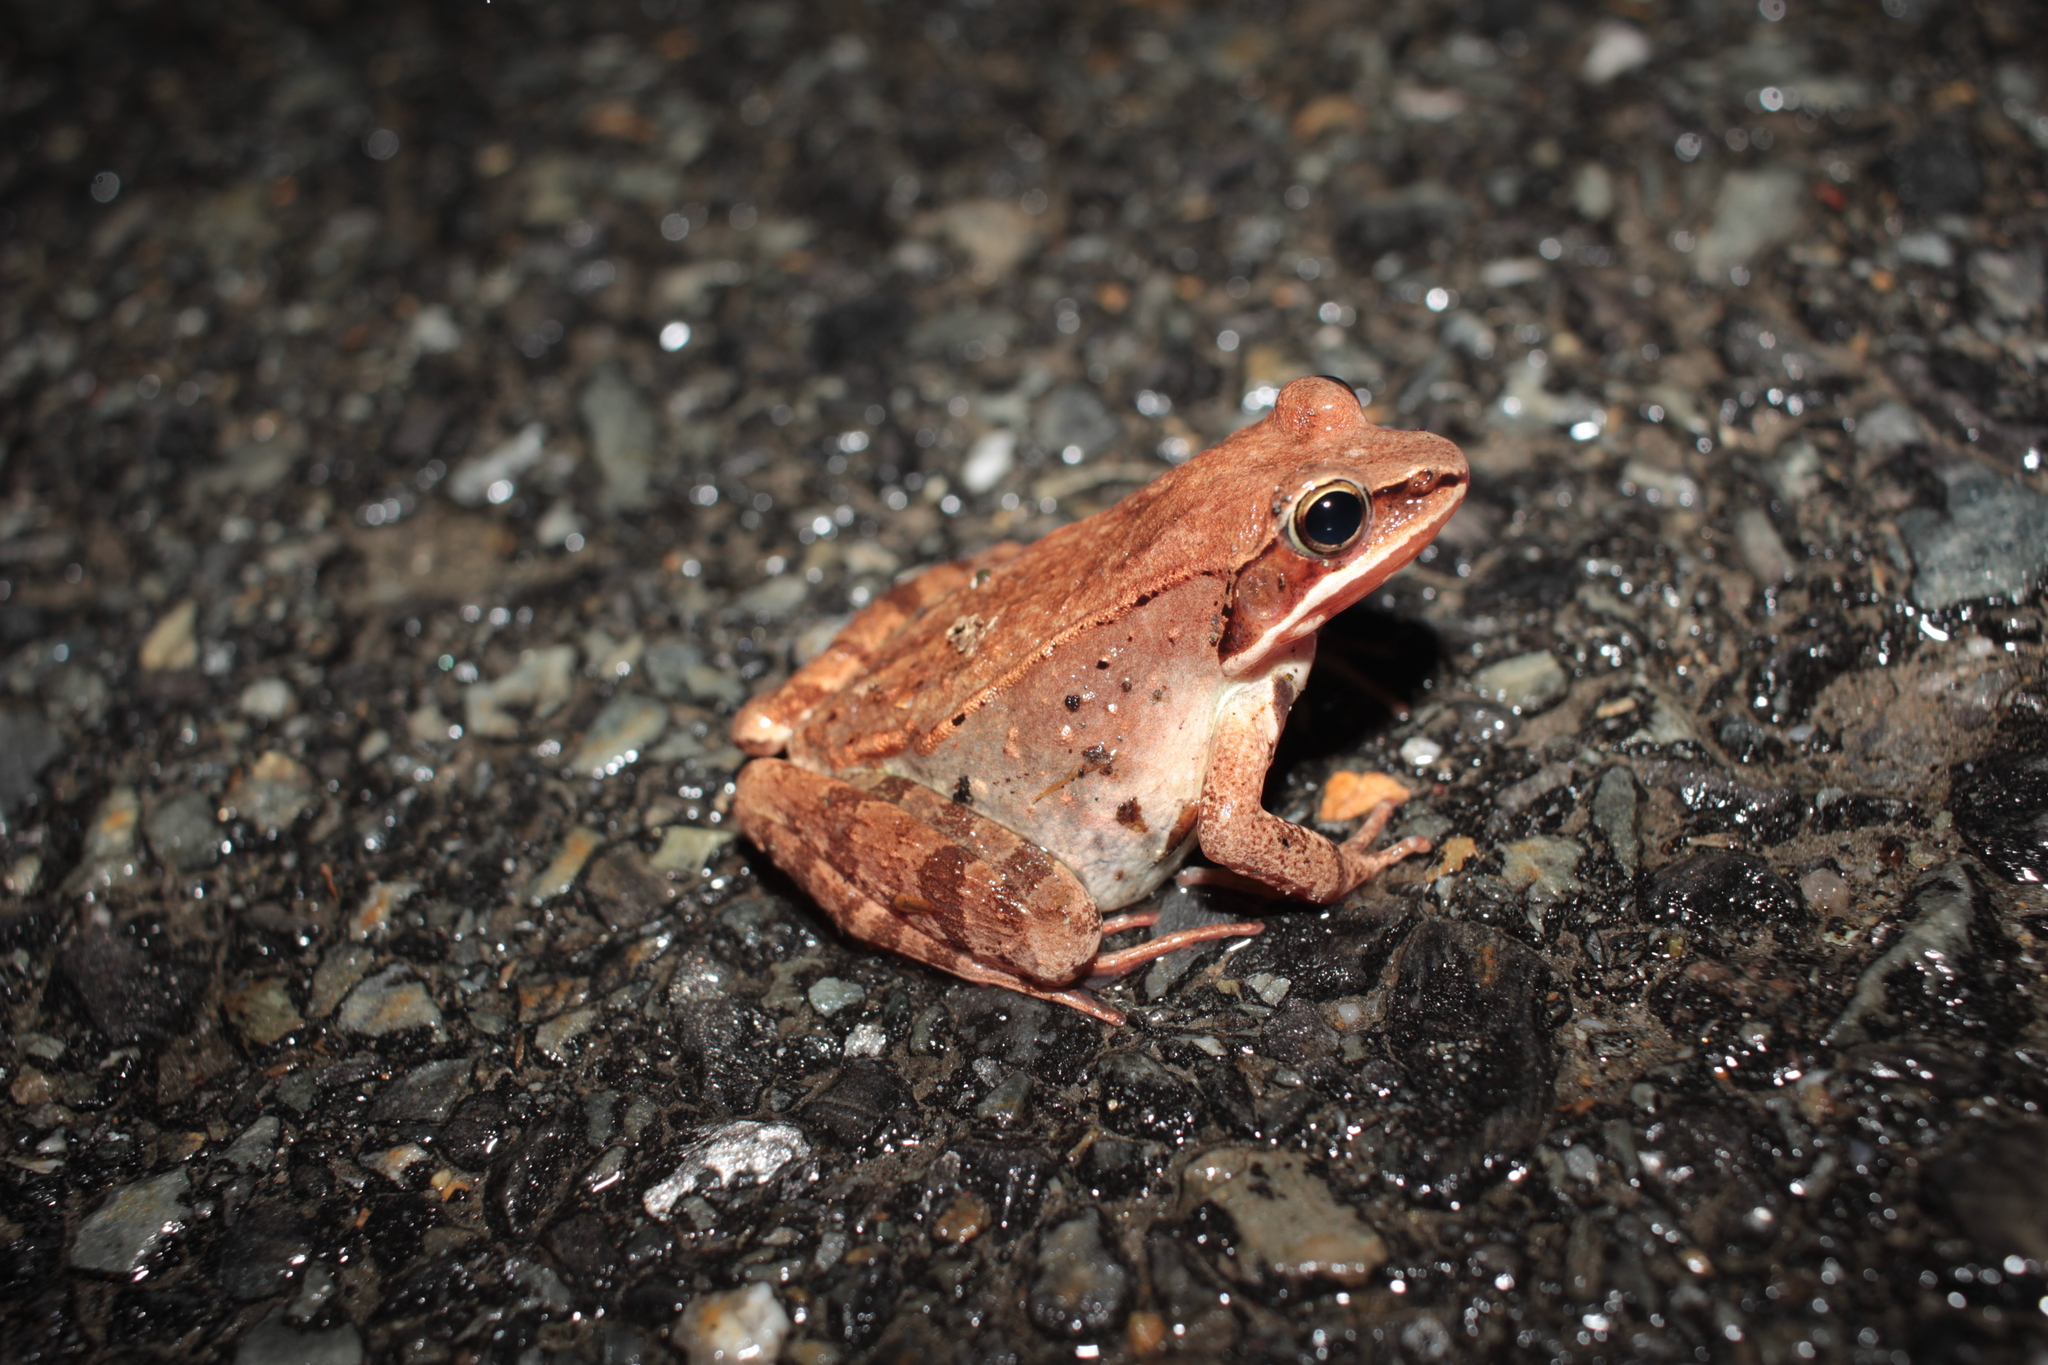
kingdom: Animalia
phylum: Chordata
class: Amphibia
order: Anura
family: Ranidae
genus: Lithobates
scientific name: Lithobates sylvaticus
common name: Wood frog
